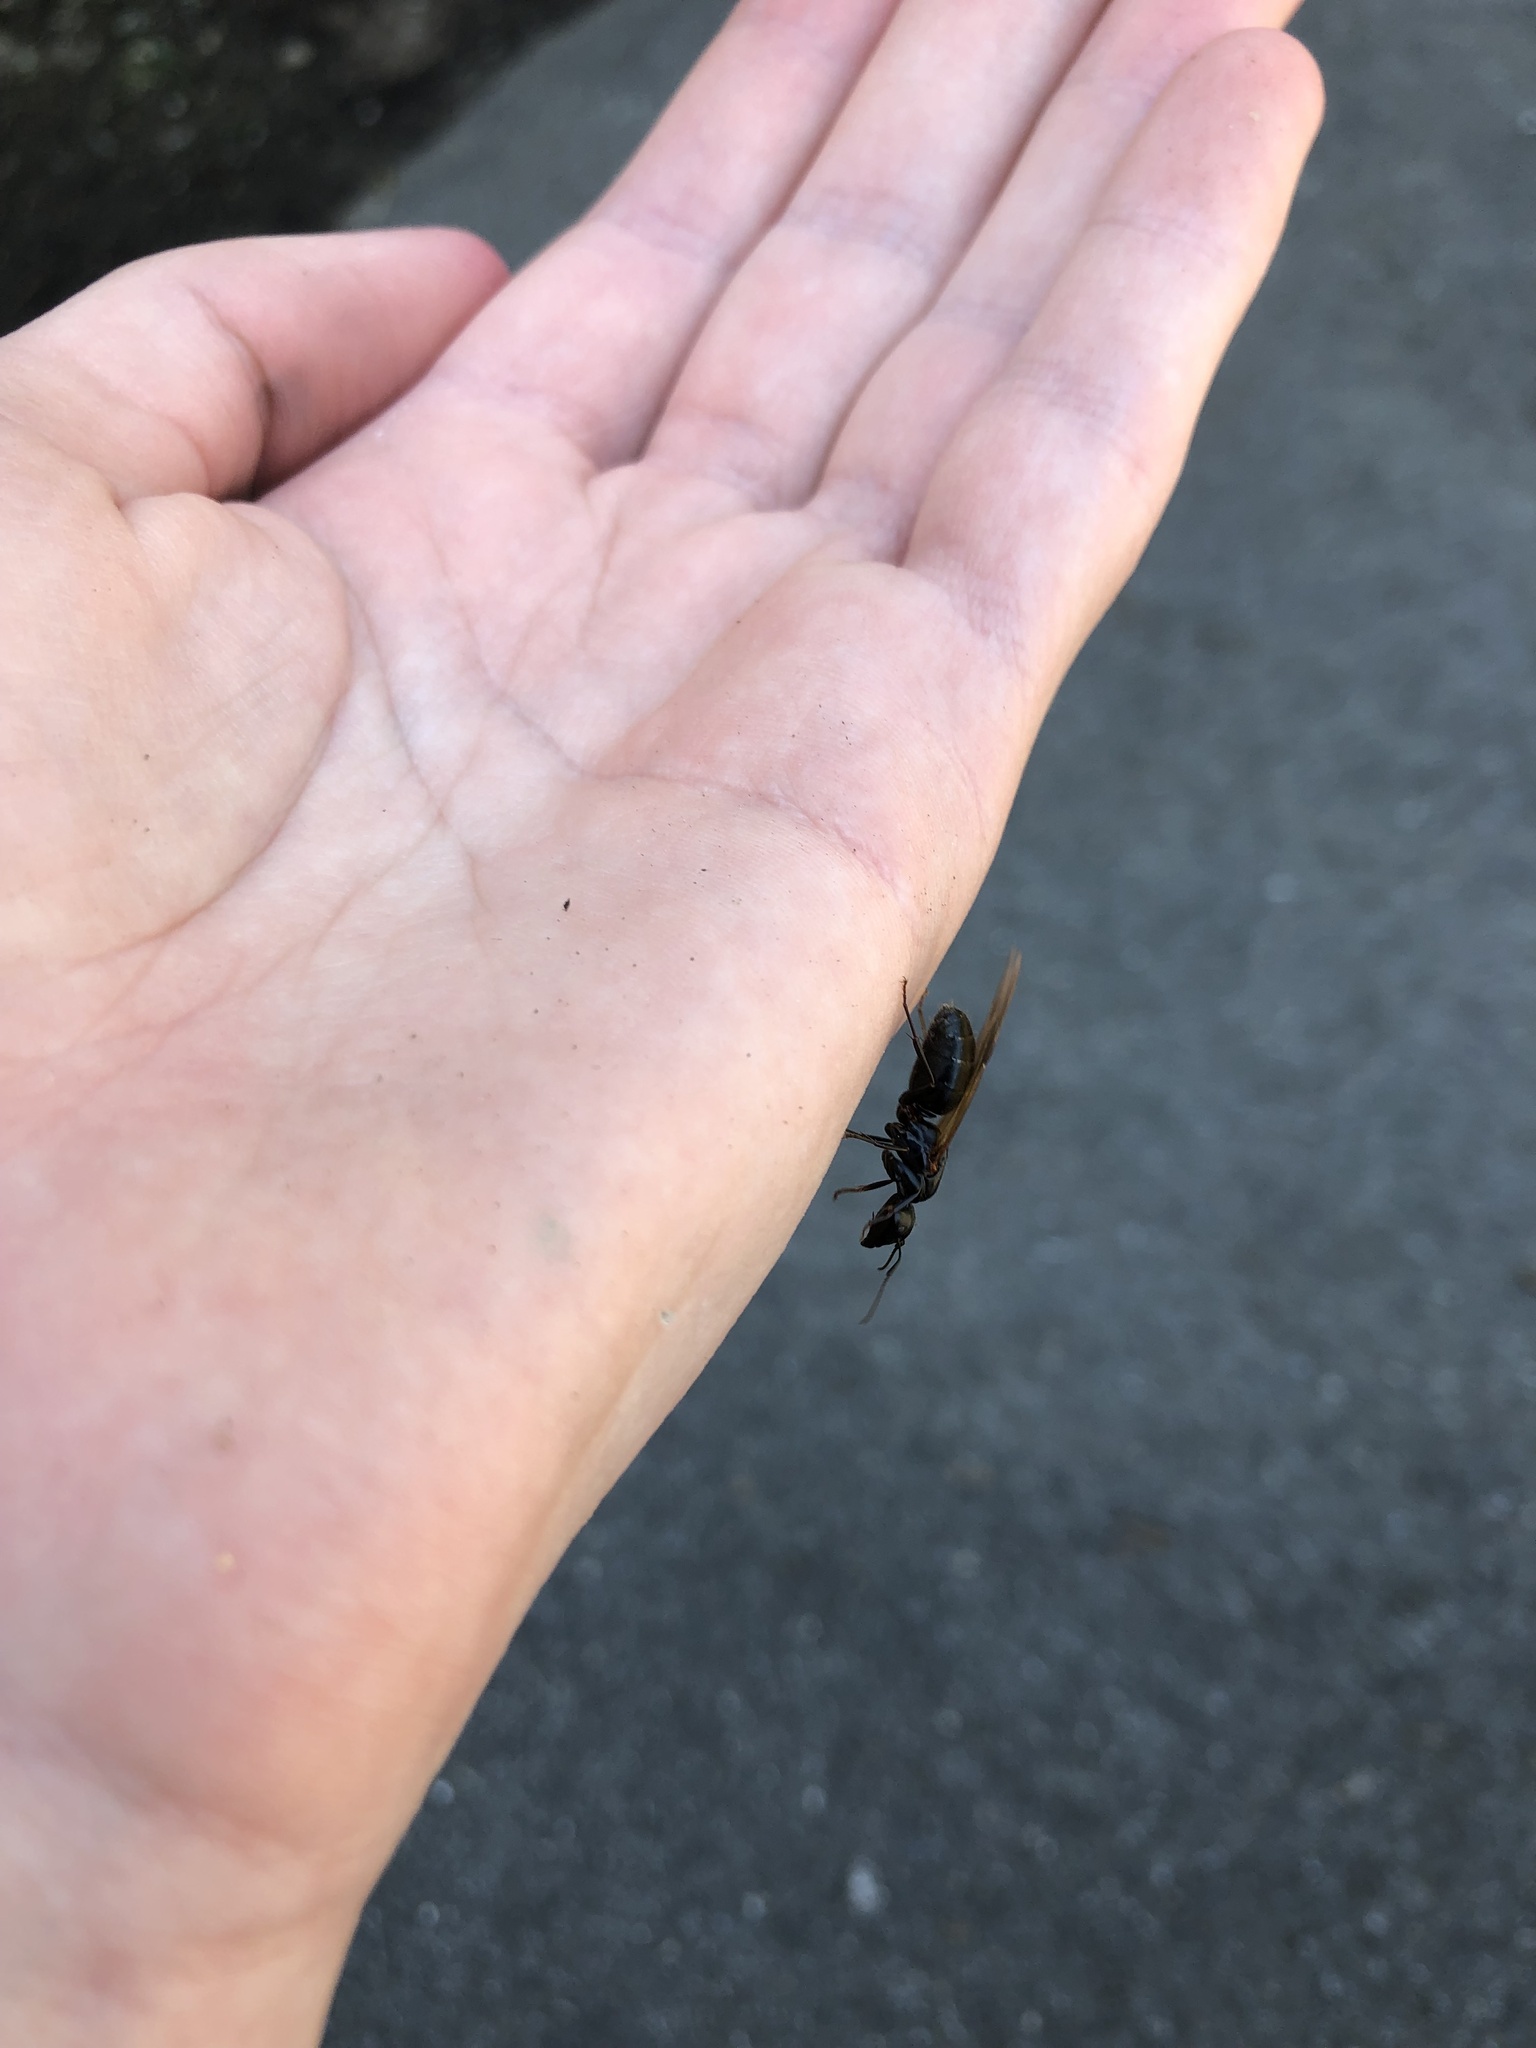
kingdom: Animalia
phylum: Arthropoda
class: Insecta
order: Hymenoptera
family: Formicidae
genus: Camponotus
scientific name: Camponotus pennsylvanicus
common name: Black carpenter ant
